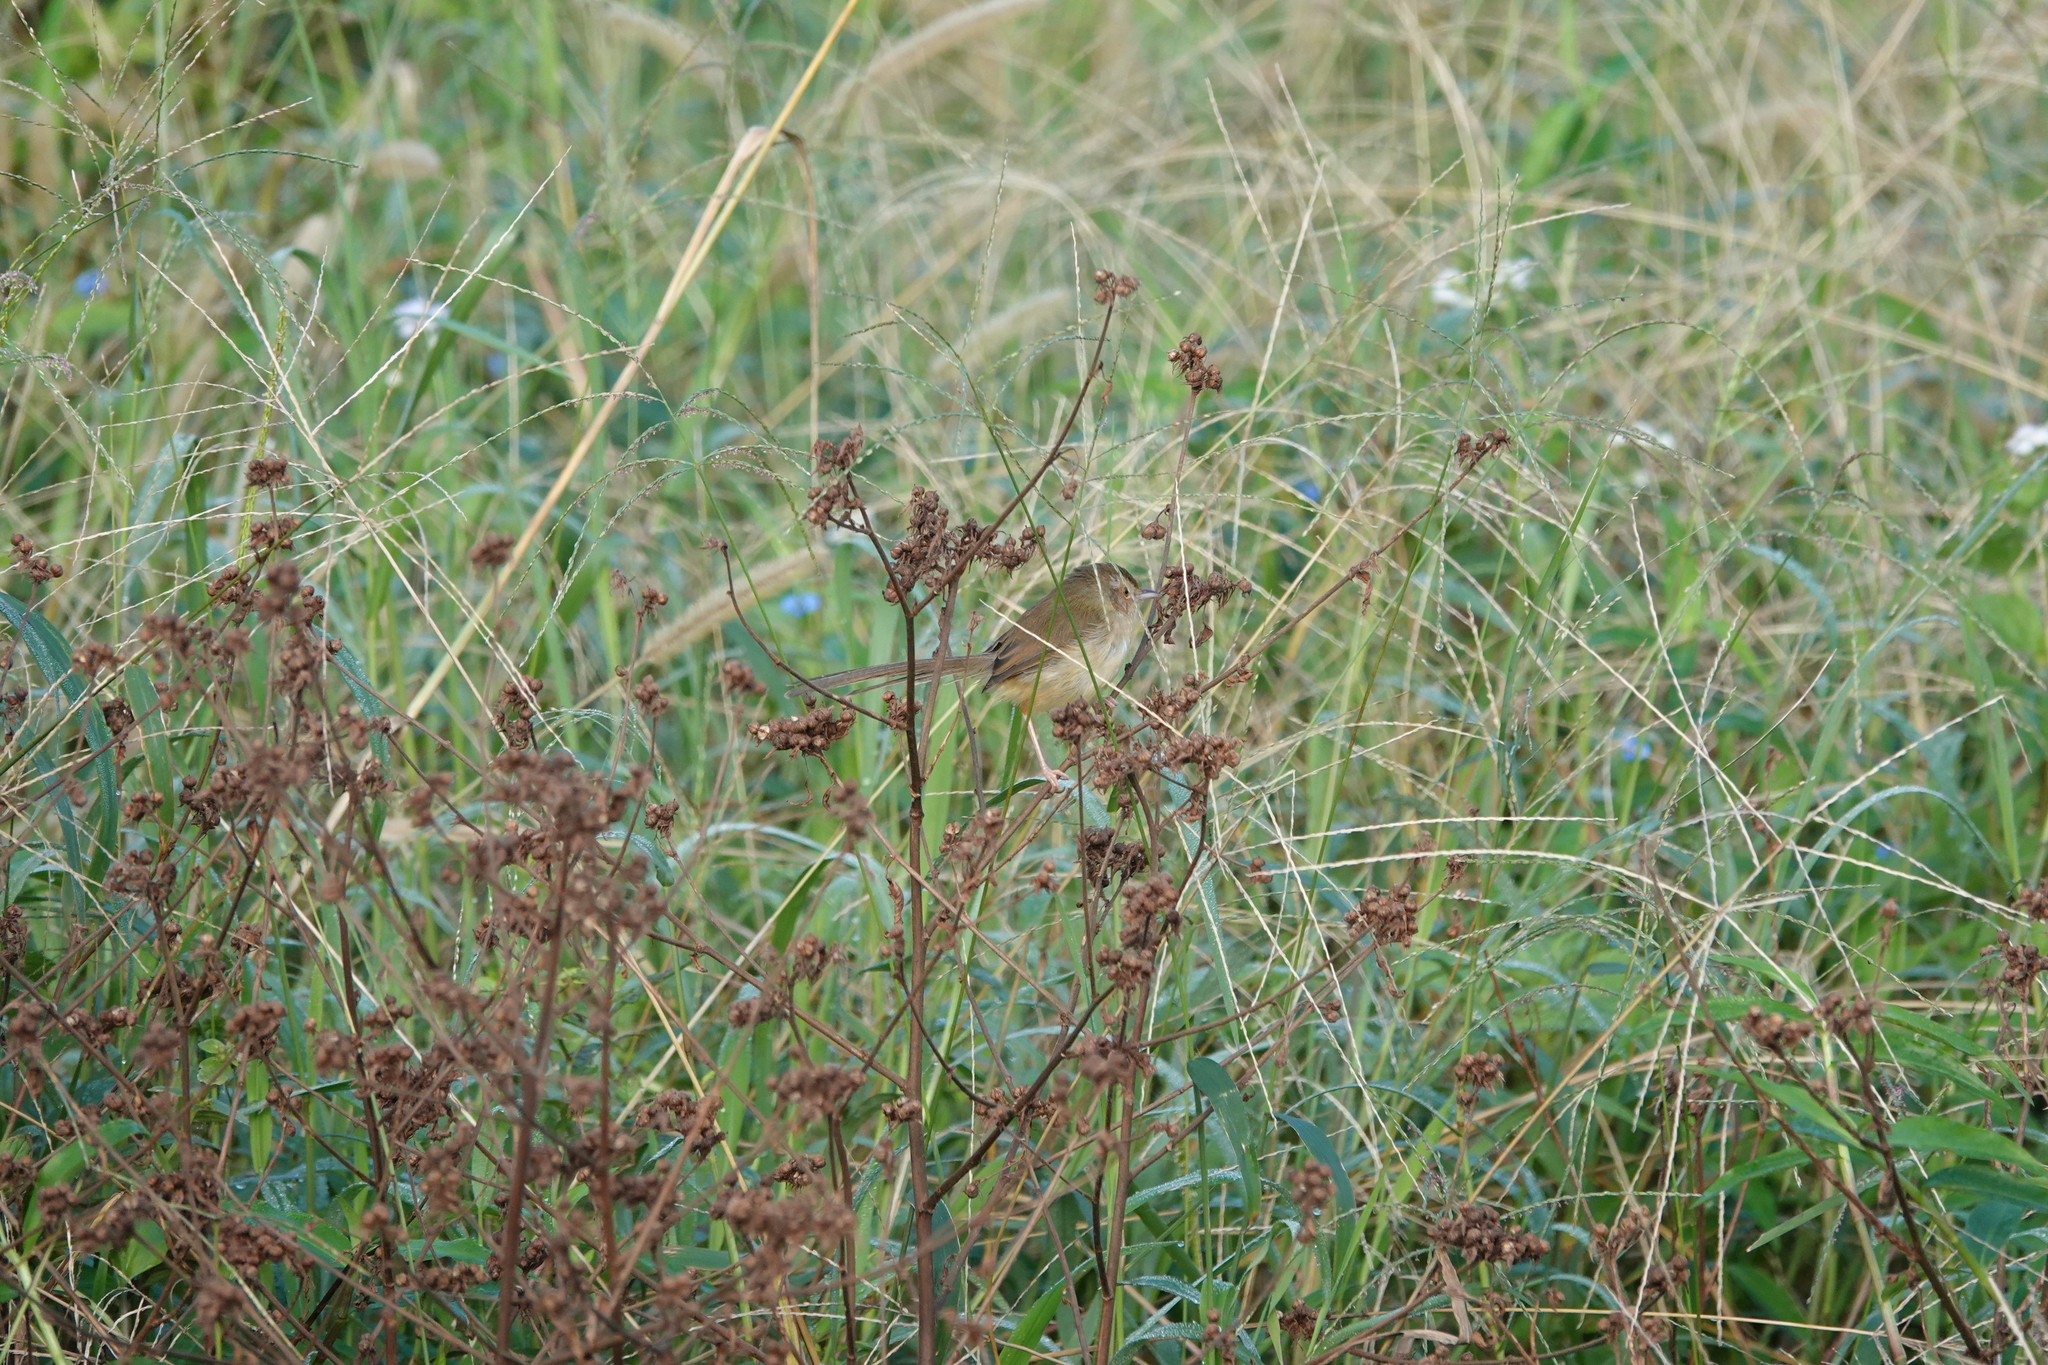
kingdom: Animalia
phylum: Chordata
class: Aves
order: Passeriformes
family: Cisticolidae
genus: Prinia
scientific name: Prinia inornata
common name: Plain prinia
